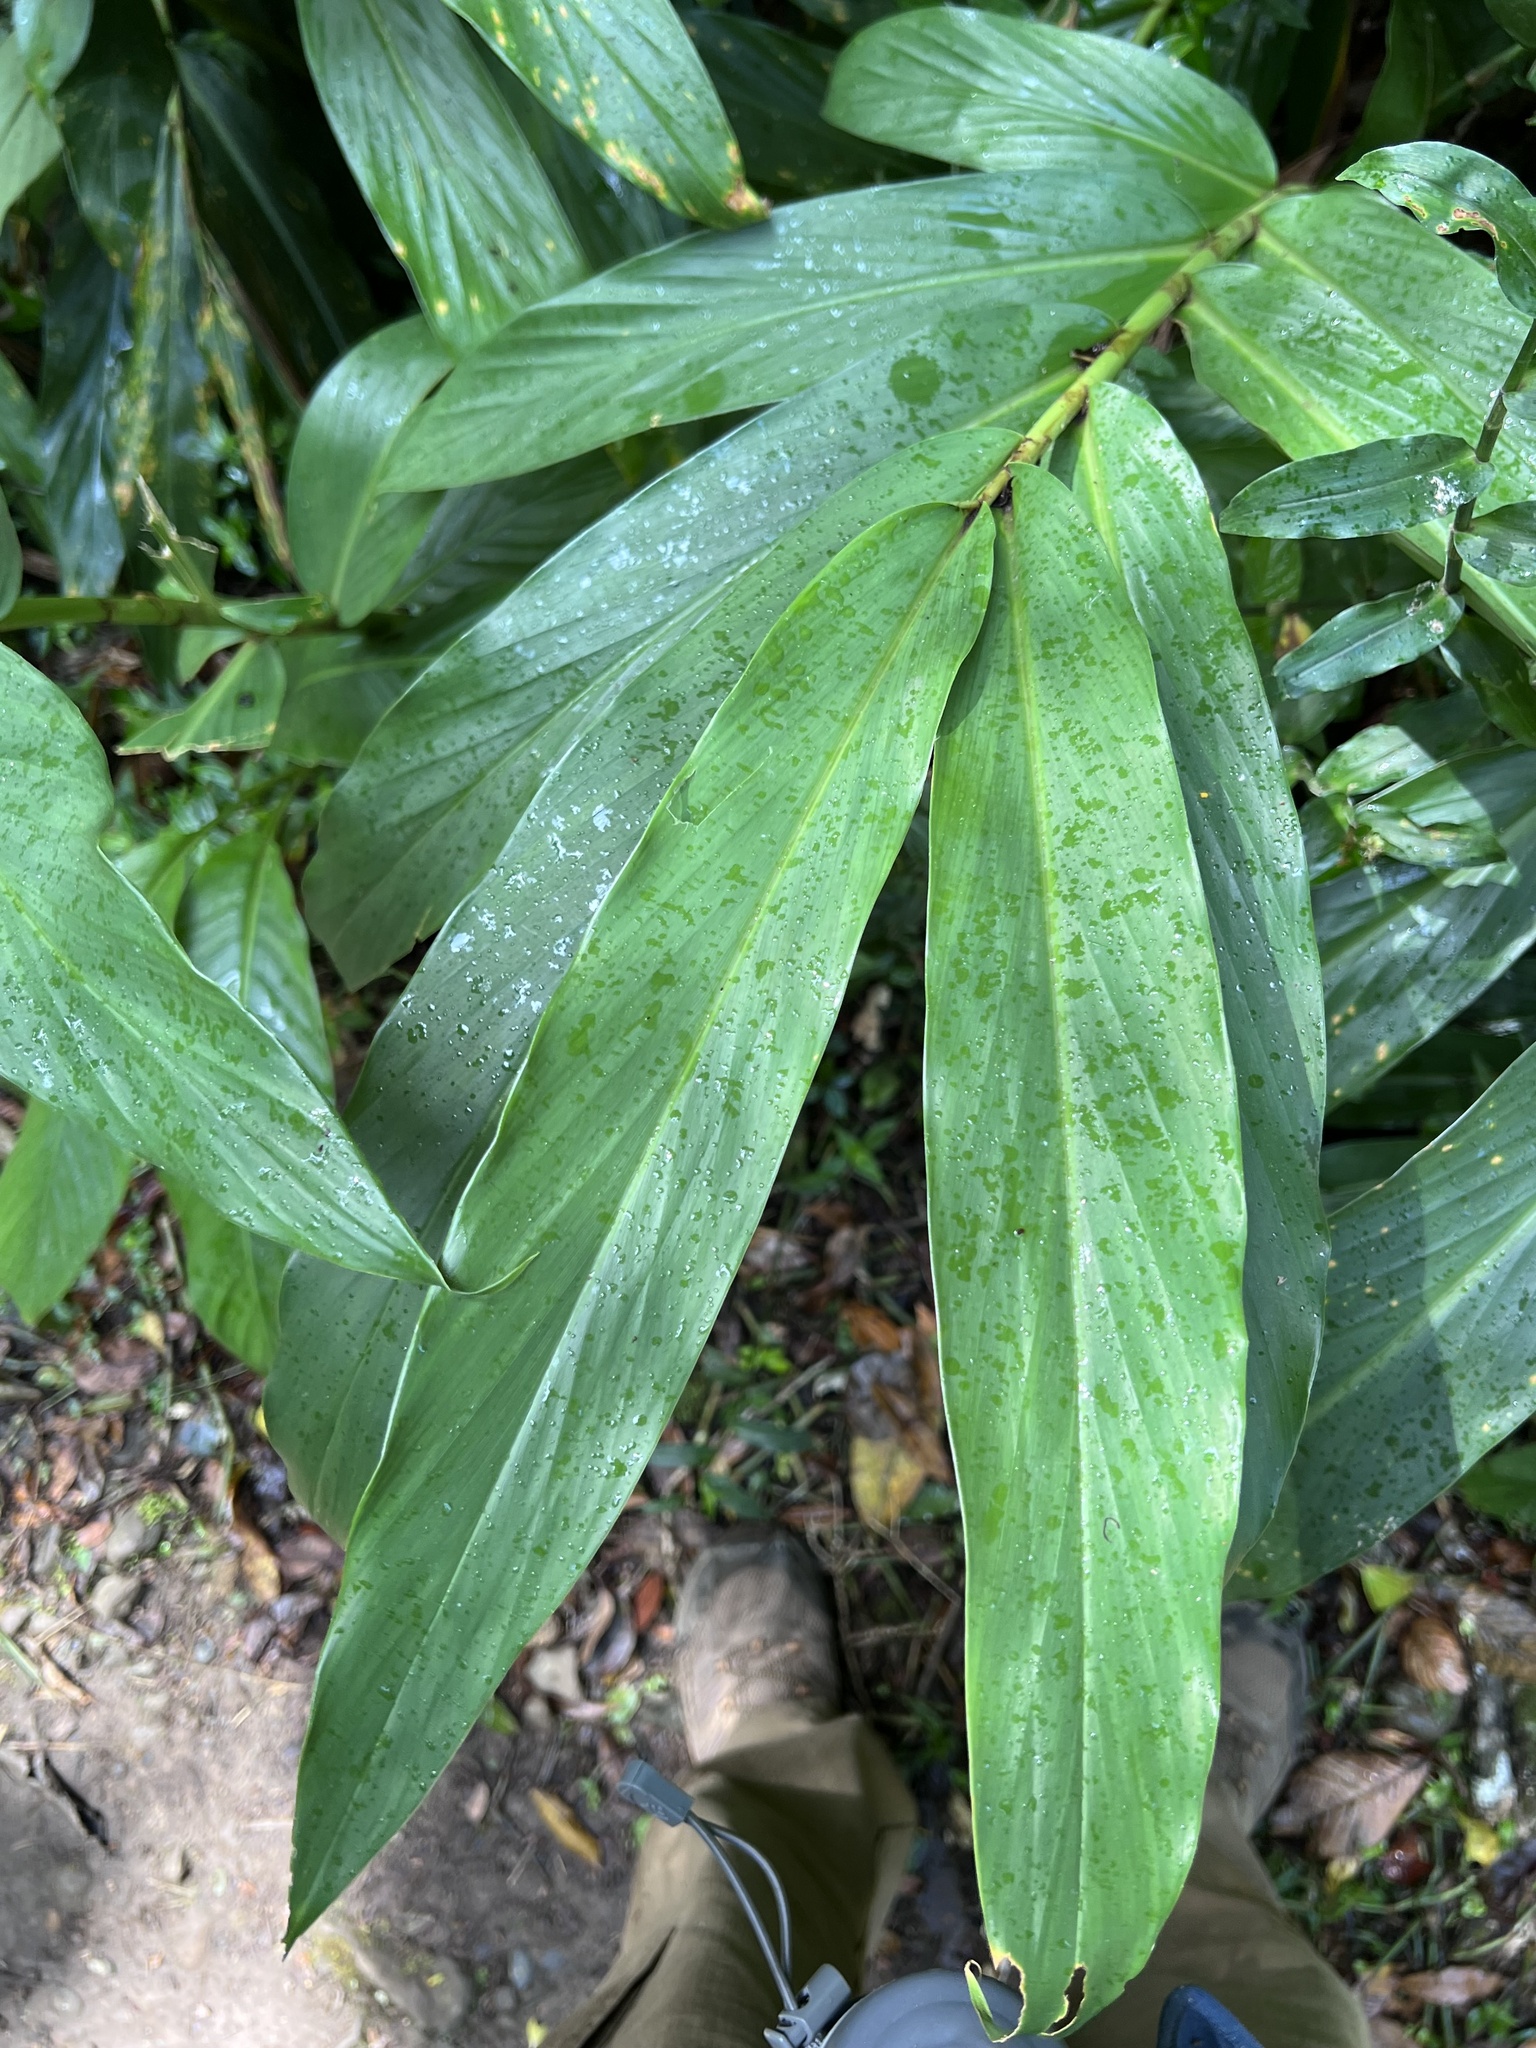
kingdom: Plantae
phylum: Tracheophyta
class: Liliopsida
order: Zingiberales
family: Zingiberaceae
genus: Hedychium
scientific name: Hedychium coronarium
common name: White garland-lily
